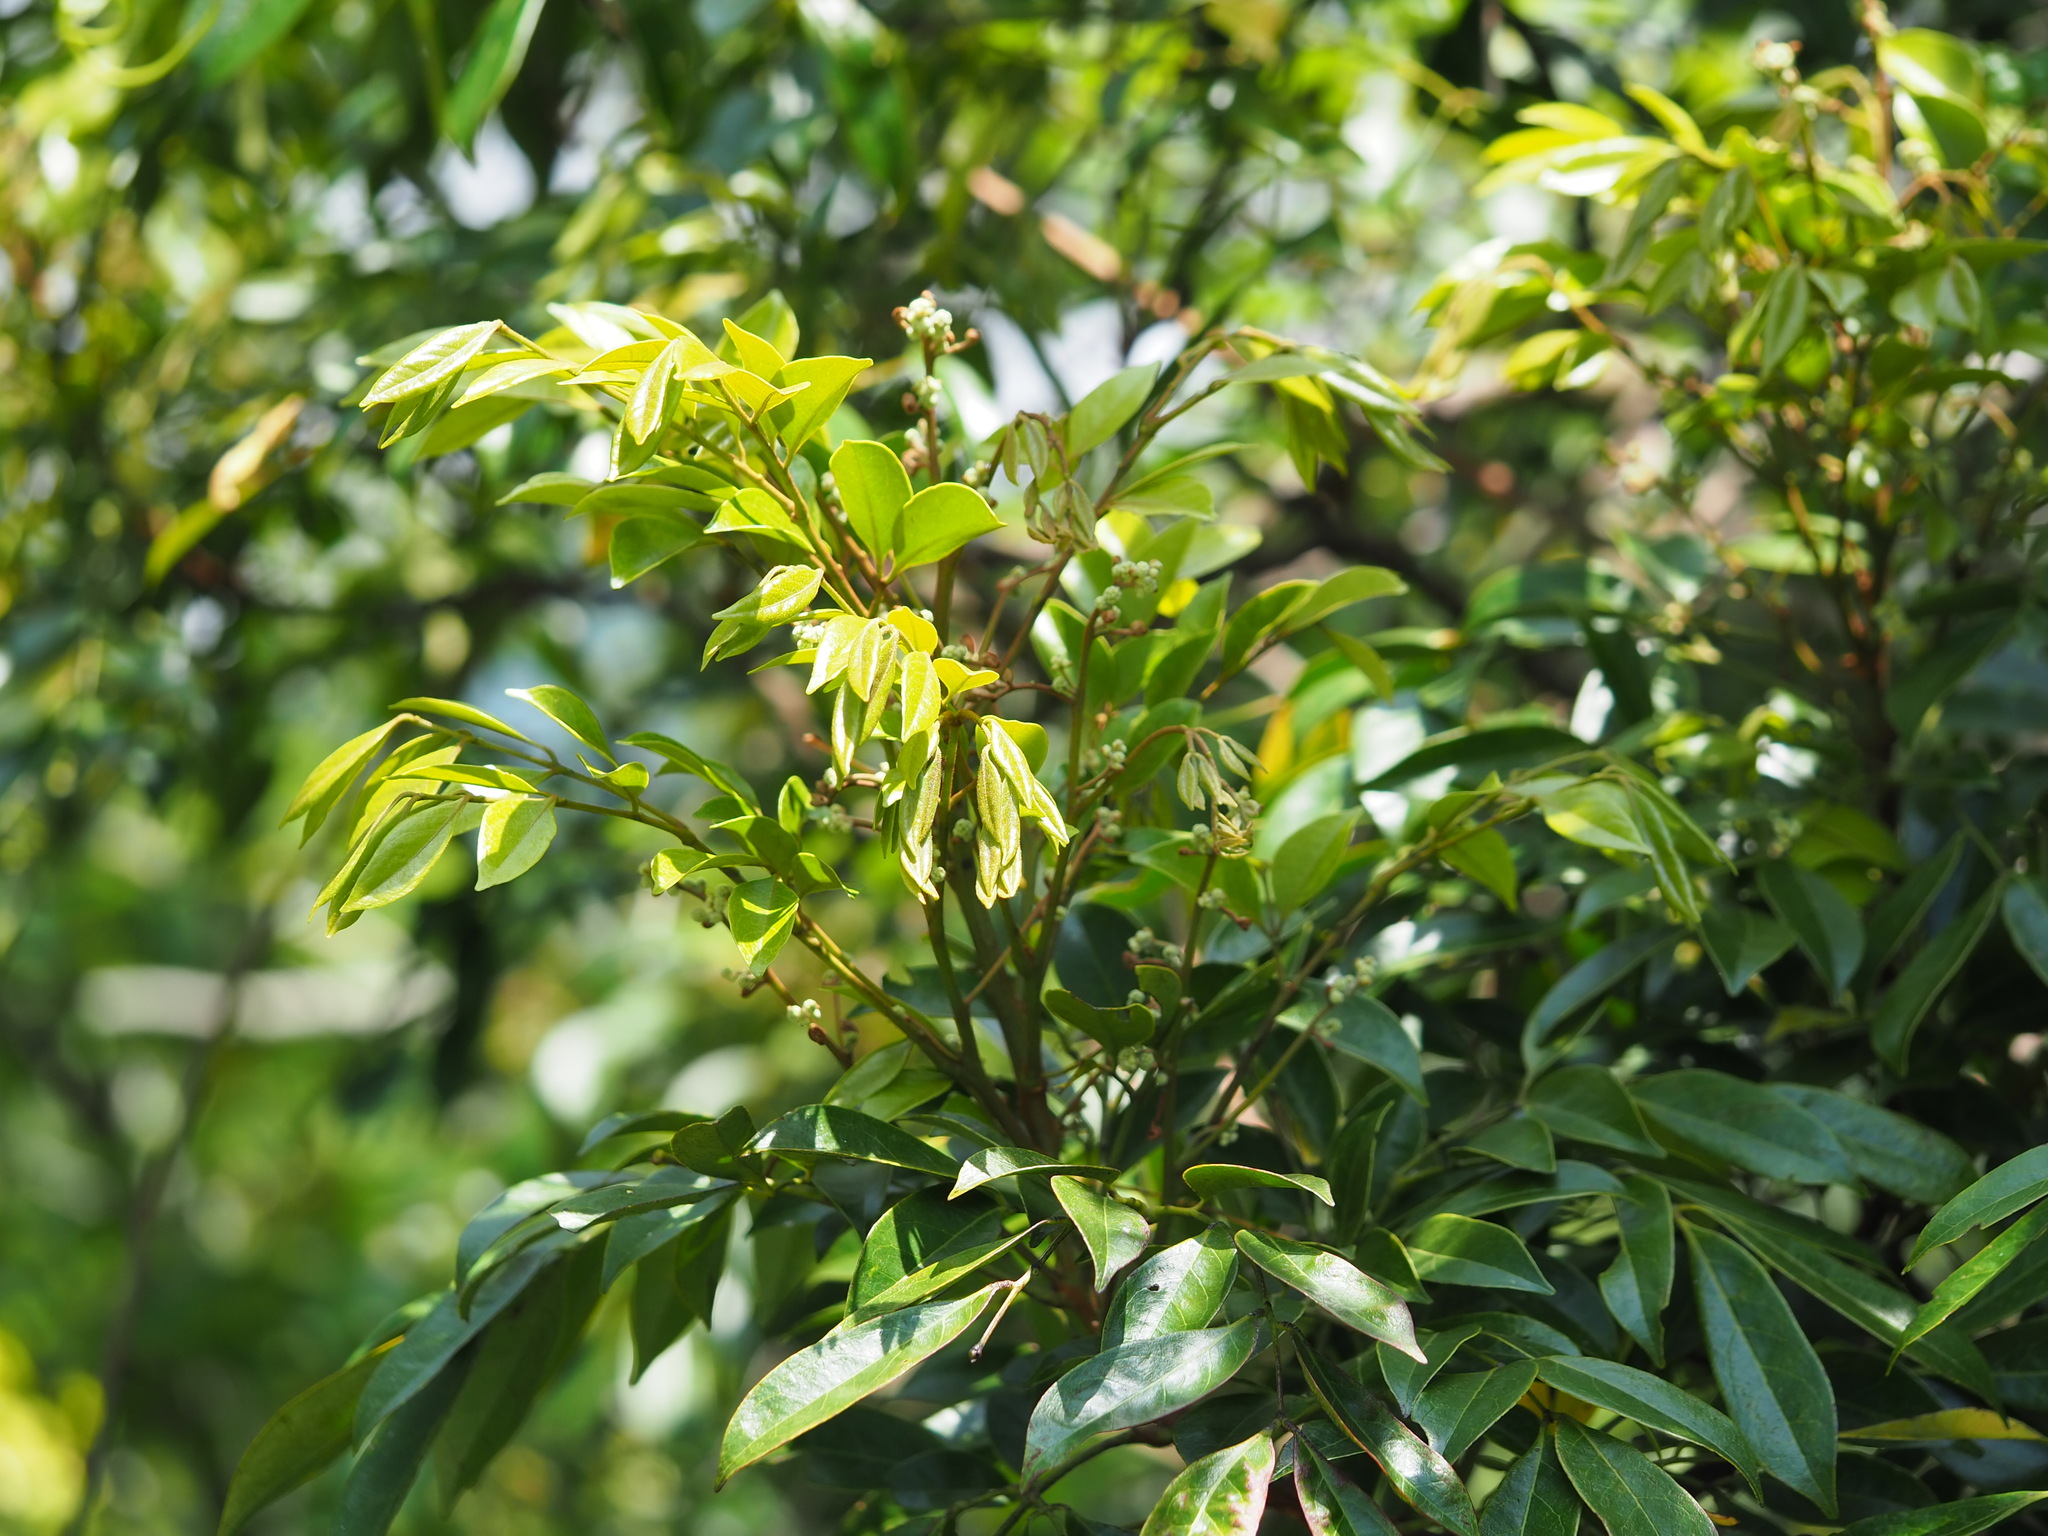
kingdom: Plantae
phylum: Tracheophyta
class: Magnoliopsida
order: Fabales
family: Fabaceae
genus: Archidendron
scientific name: Archidendron lucidum
